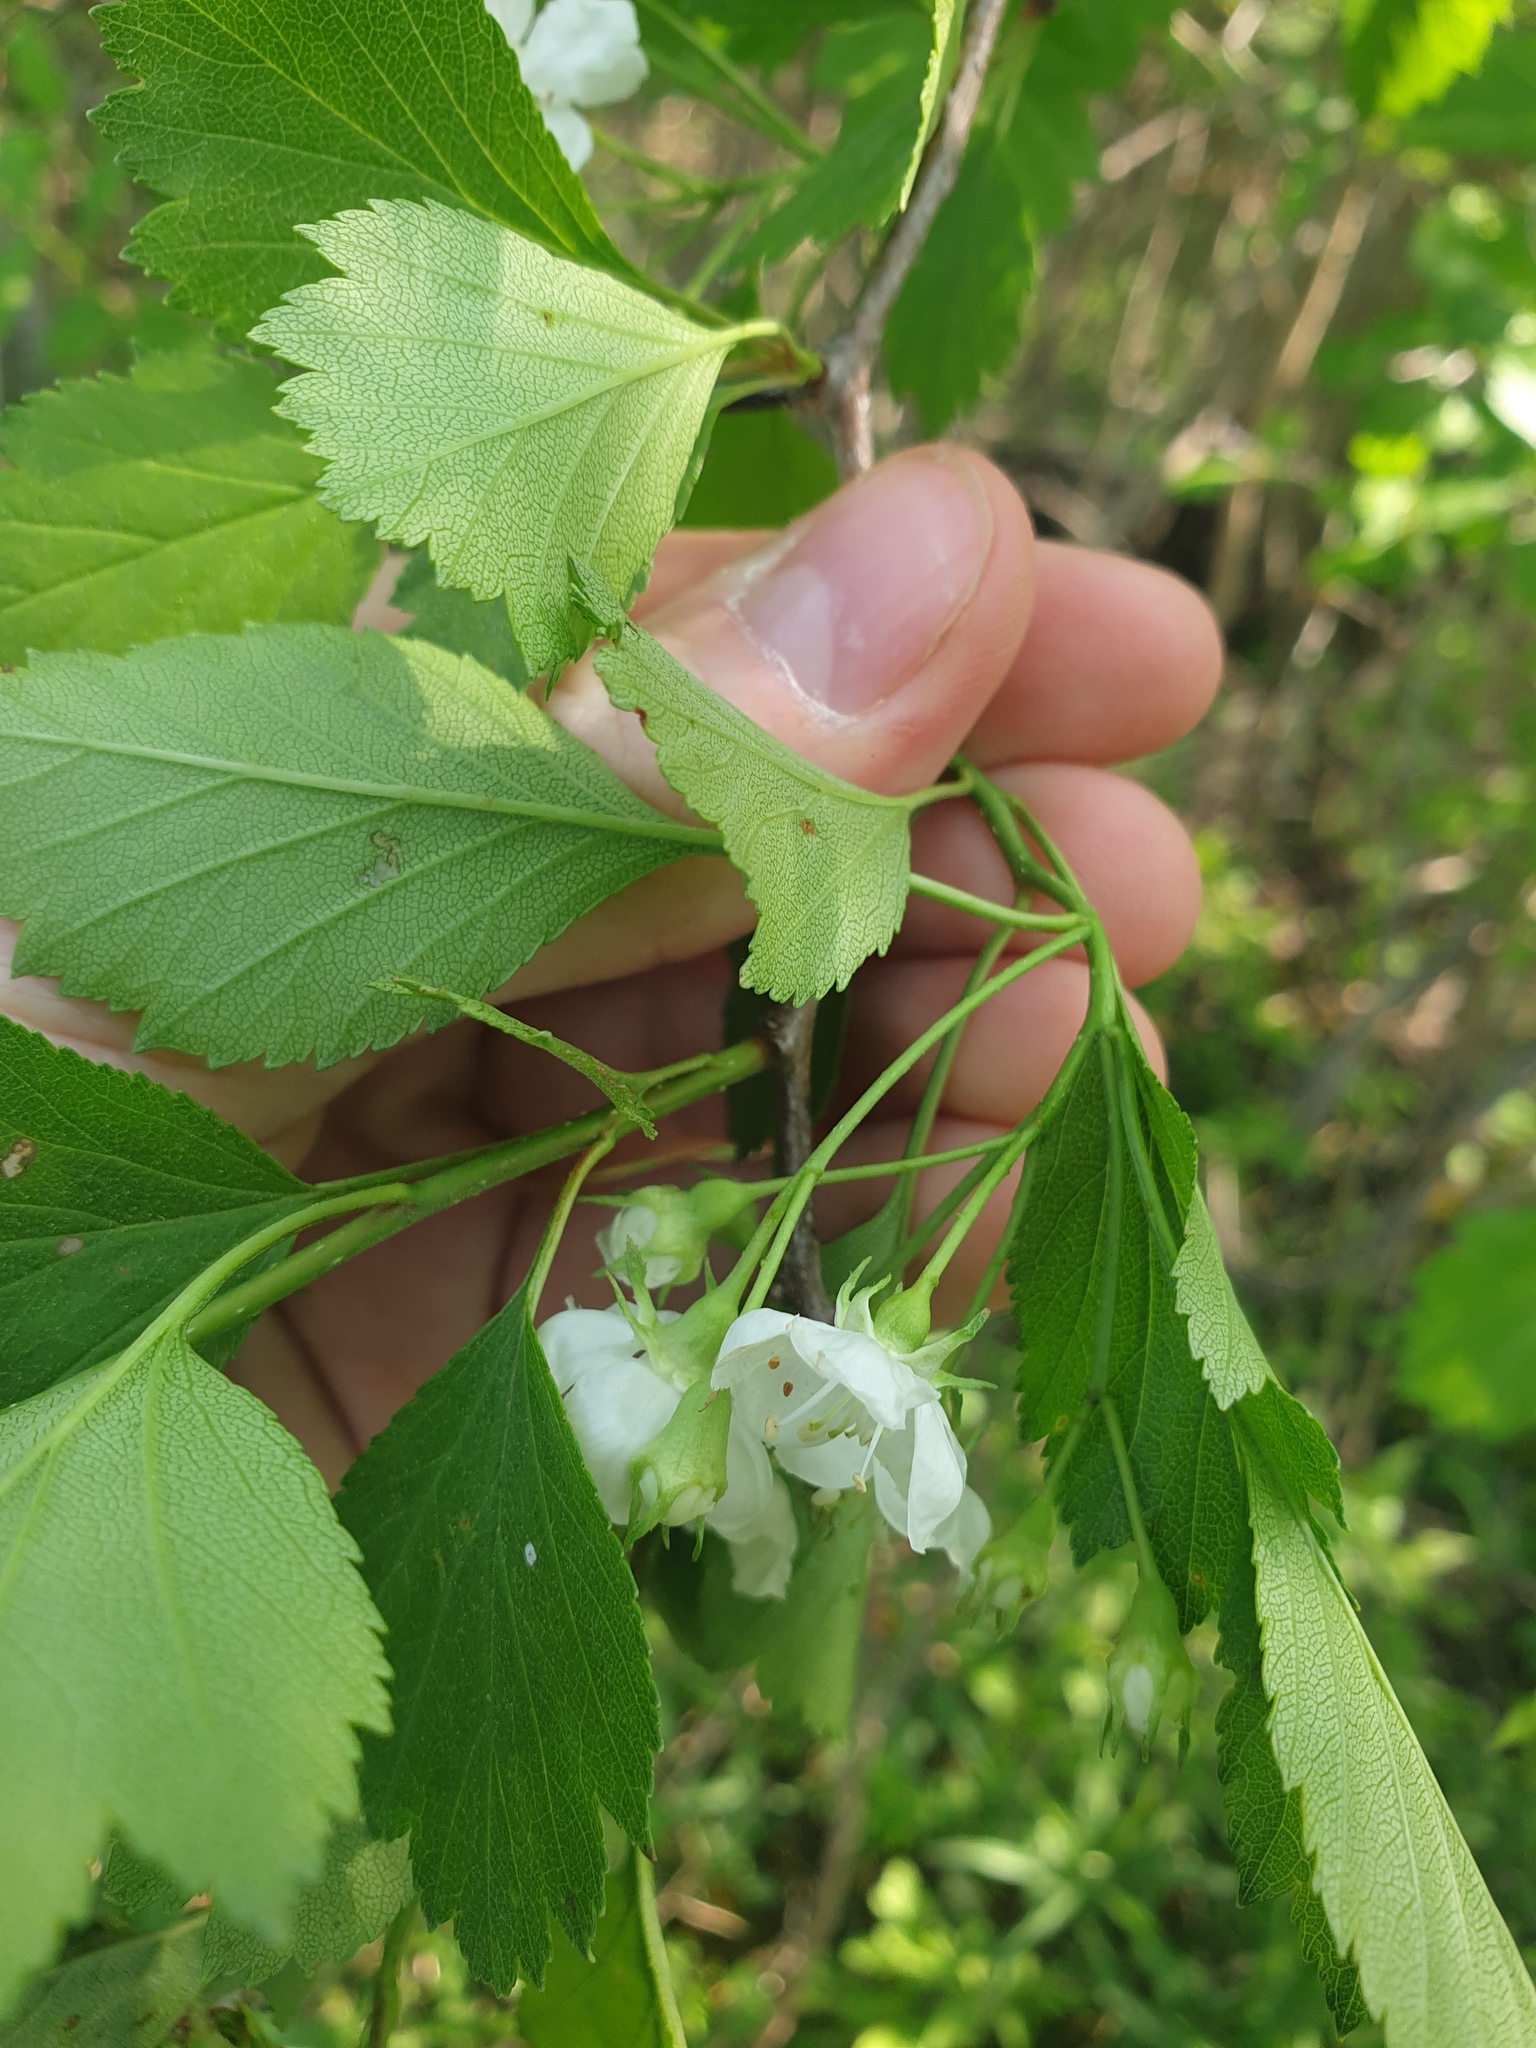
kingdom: Plantae
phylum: Tracheophyta
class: Magnoliopsida
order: Rosales
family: Rosaceae
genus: Crataegus
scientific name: Crataegus dodgei
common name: Dodge's hawthorn
